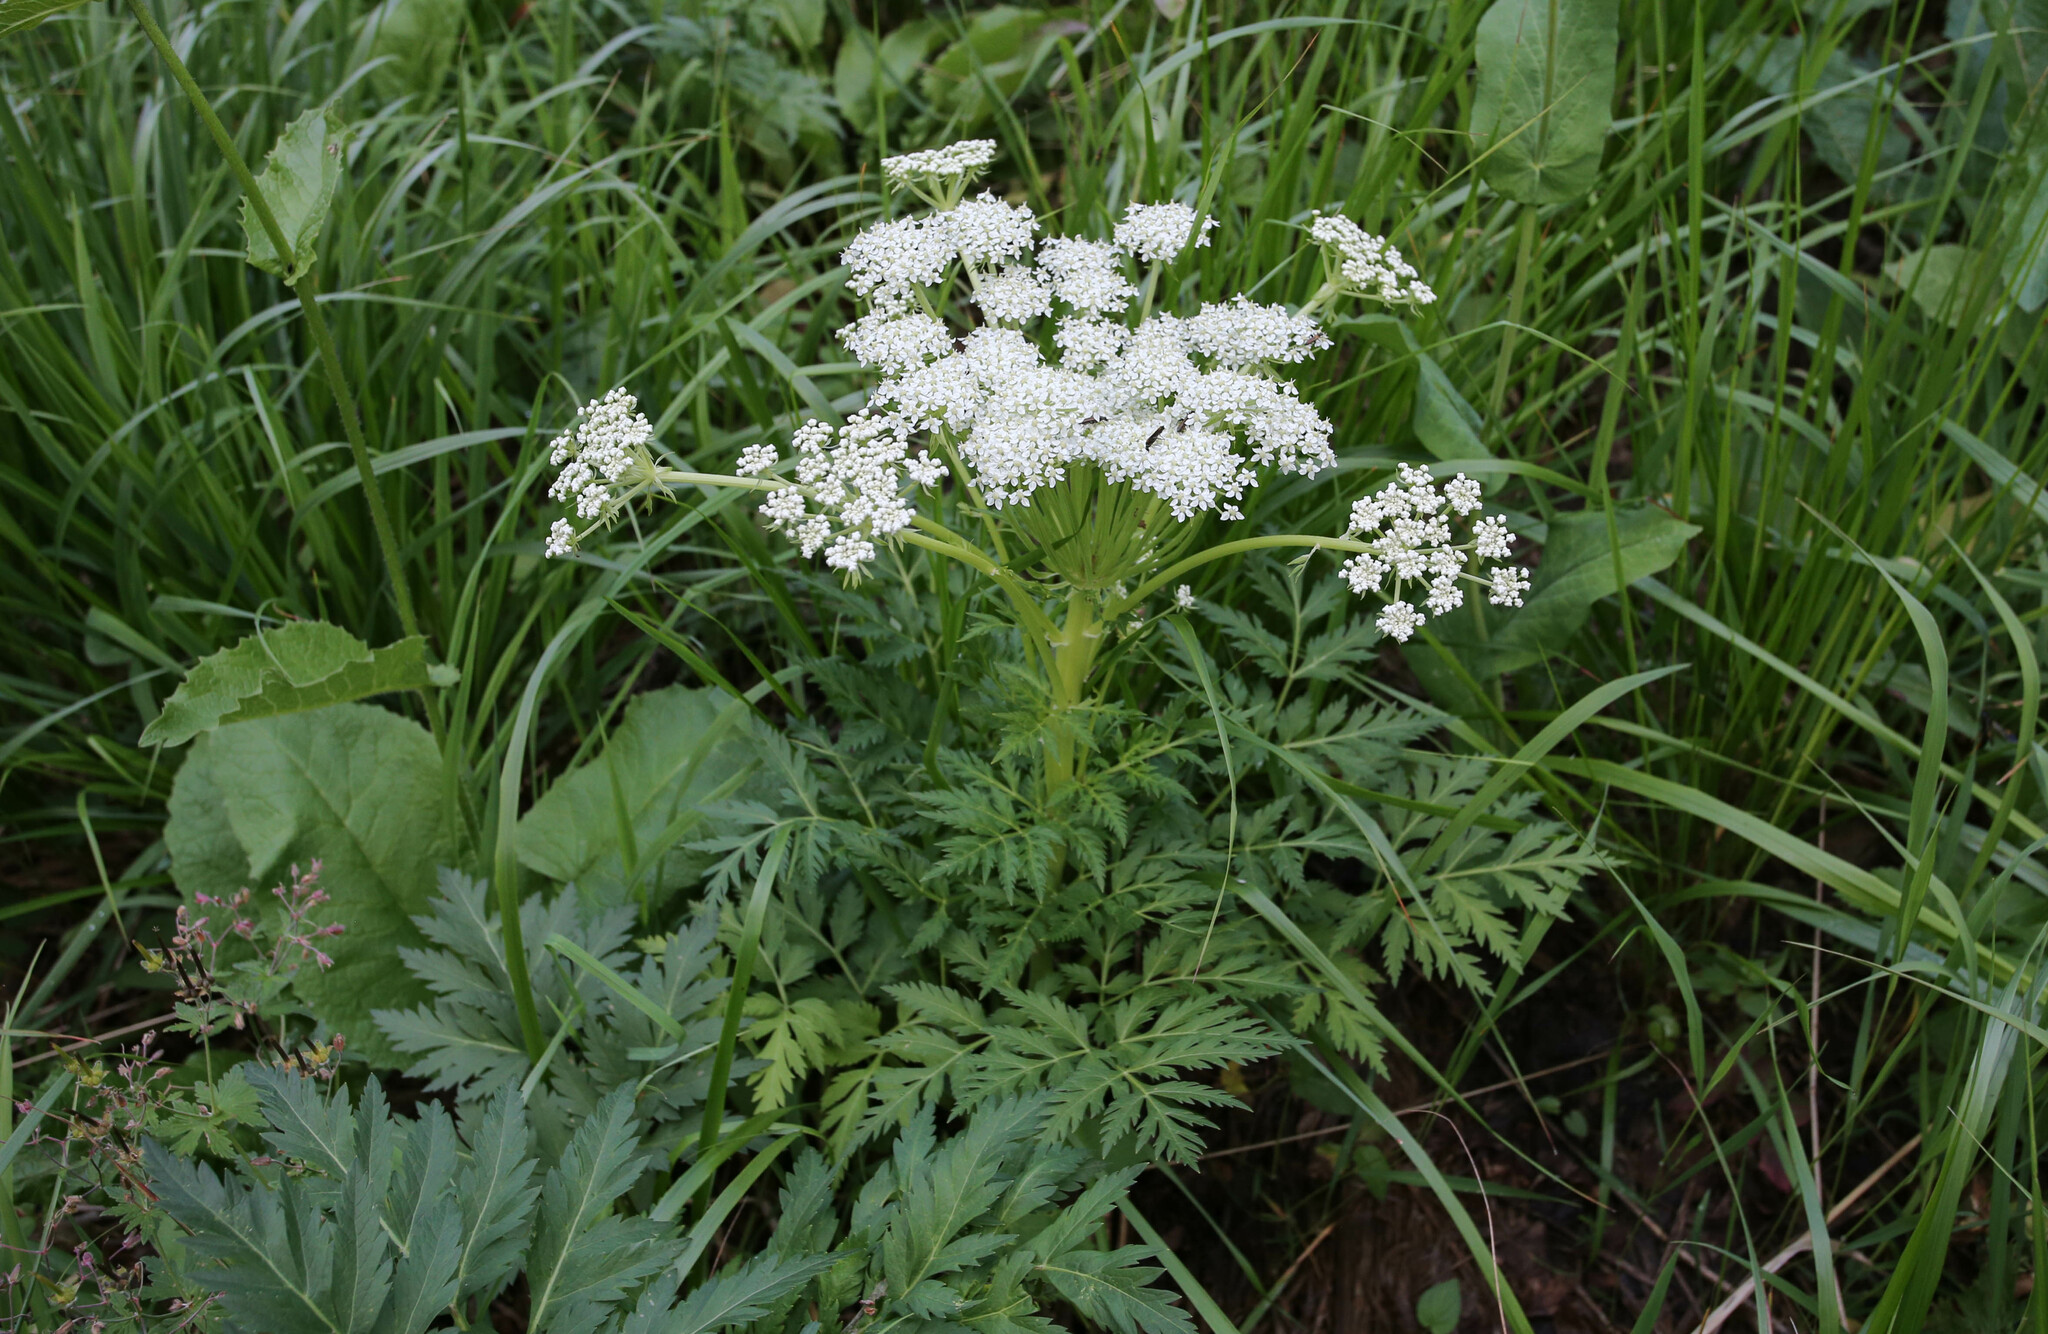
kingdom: Plantae
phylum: Tracheophyta
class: Magnoliopsida
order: Apiales
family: Apiaceae
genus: Pleurospermum
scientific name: Pleurospermum uralense
